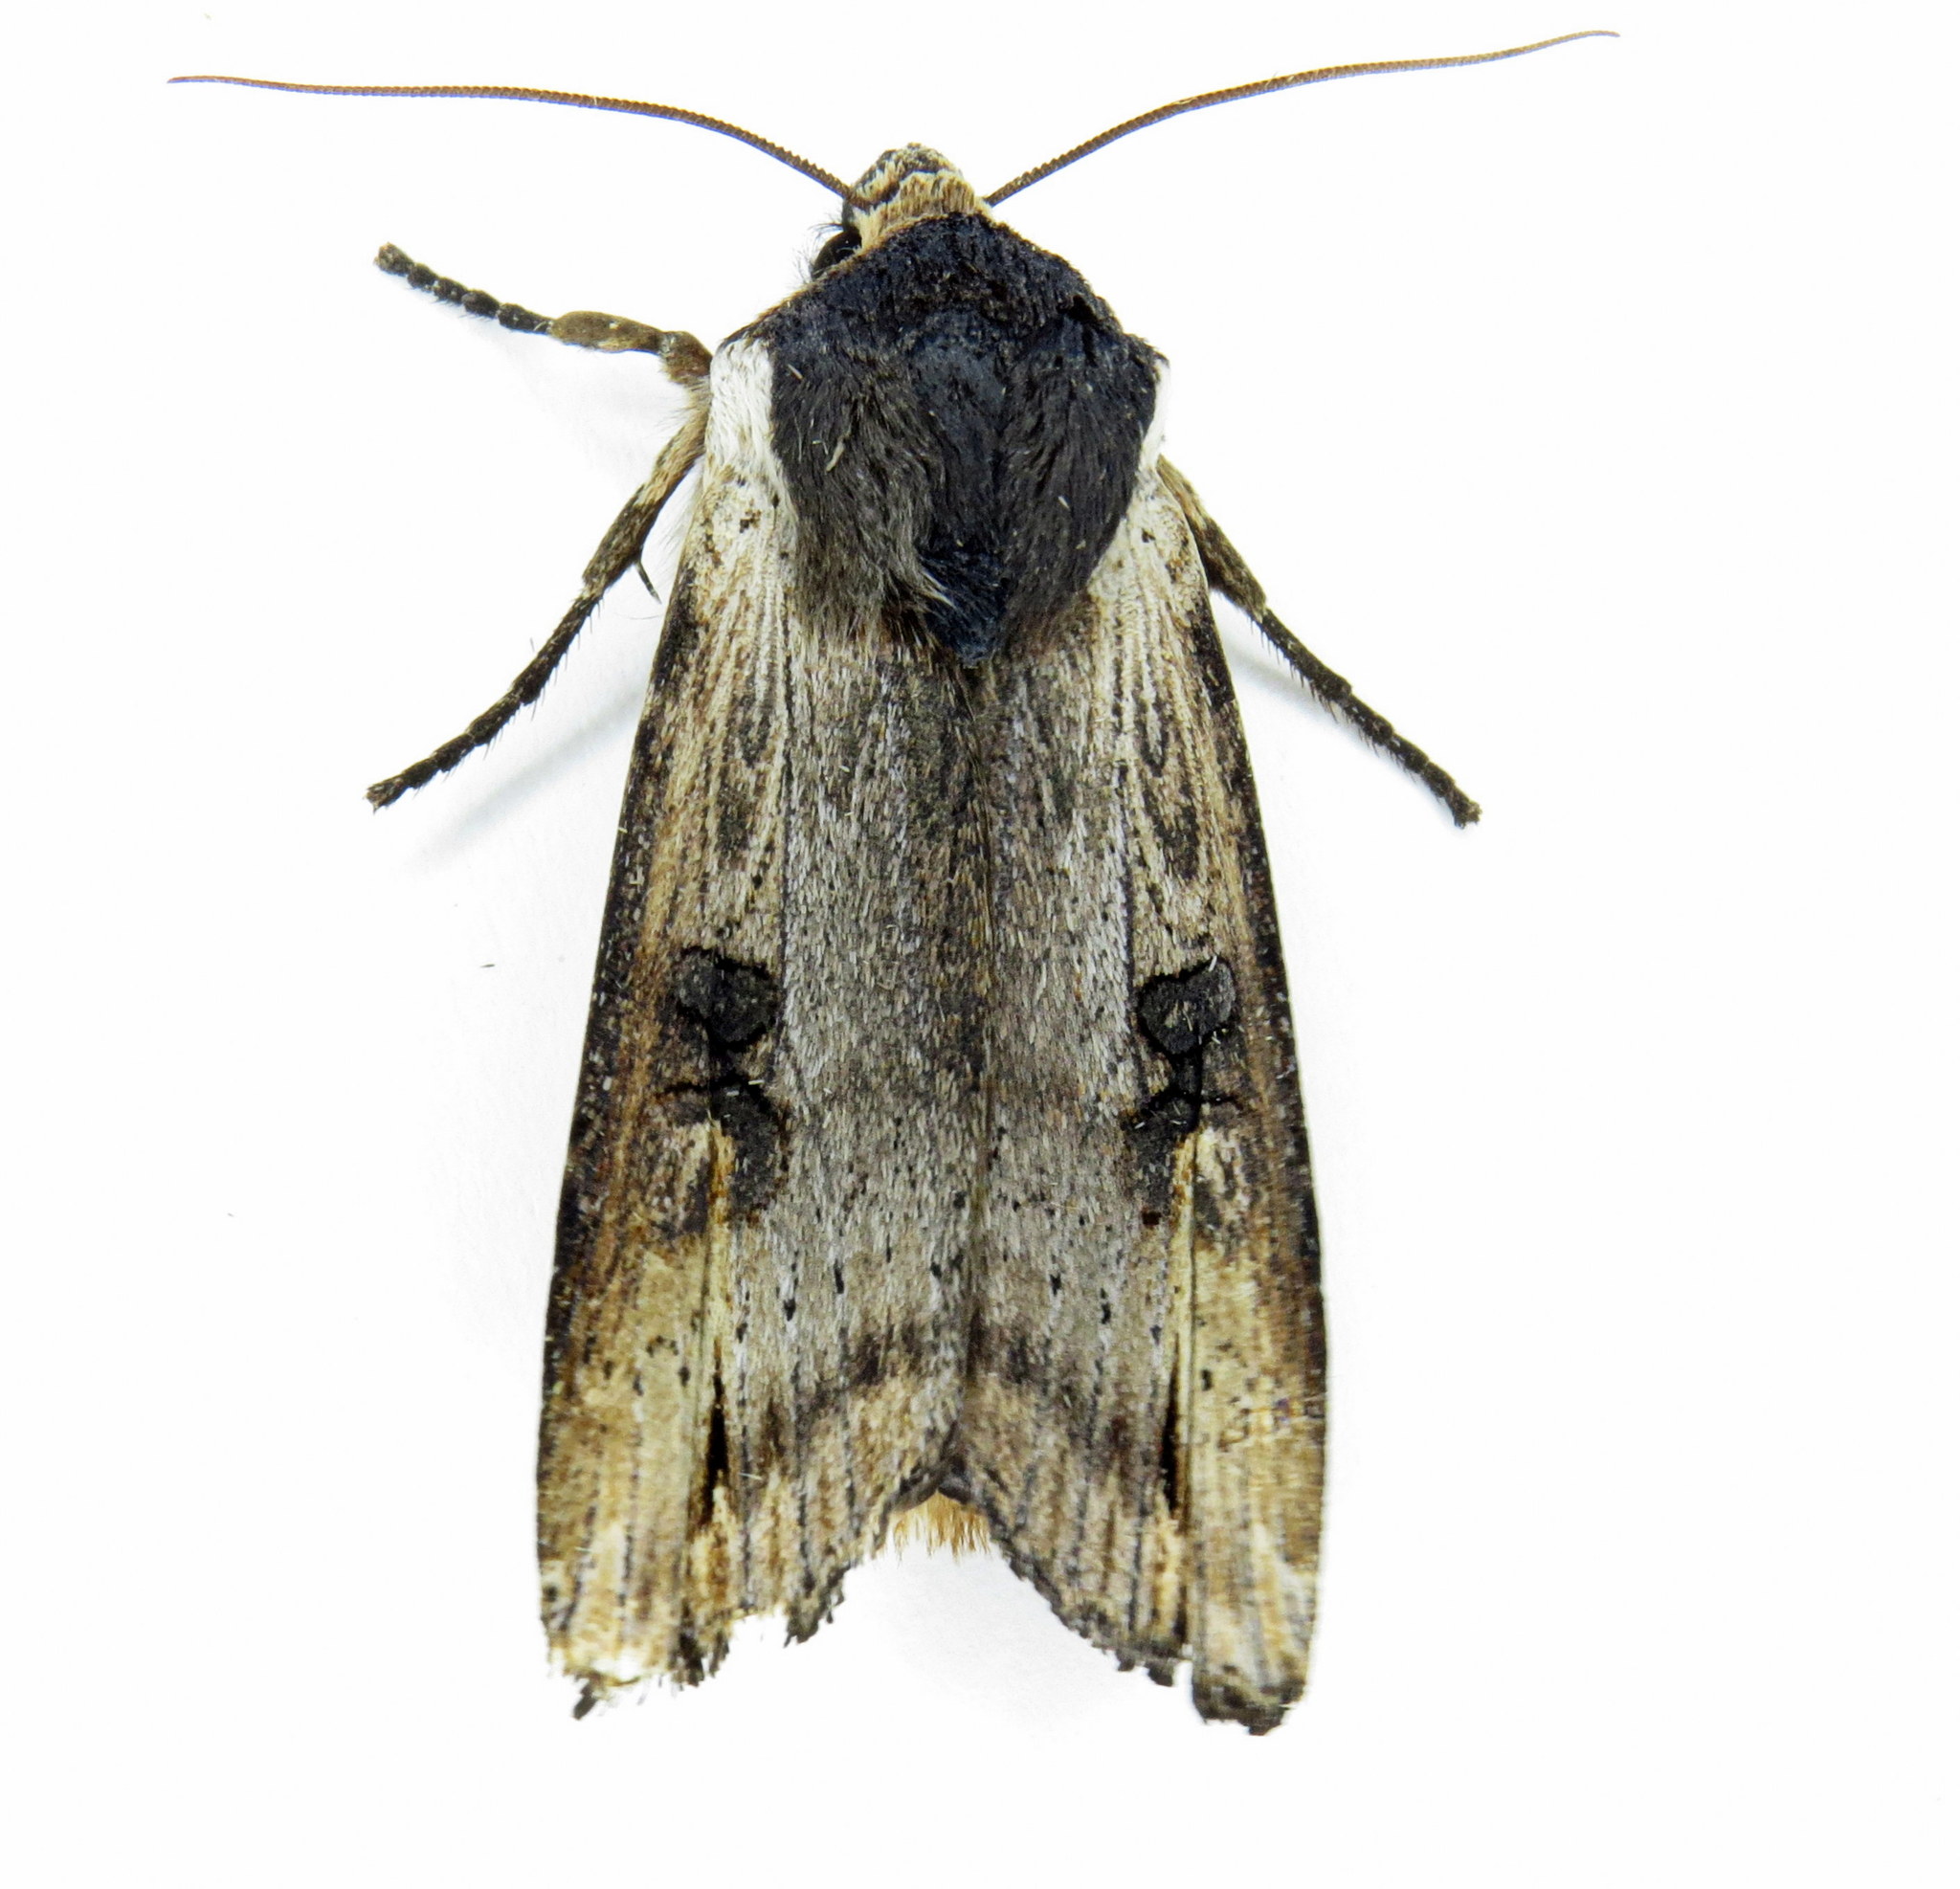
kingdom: Animalia
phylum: Arthropoda
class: Insecta
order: Lepidoptera
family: Noctuidae
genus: Xylena
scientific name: Xylena cineritia
